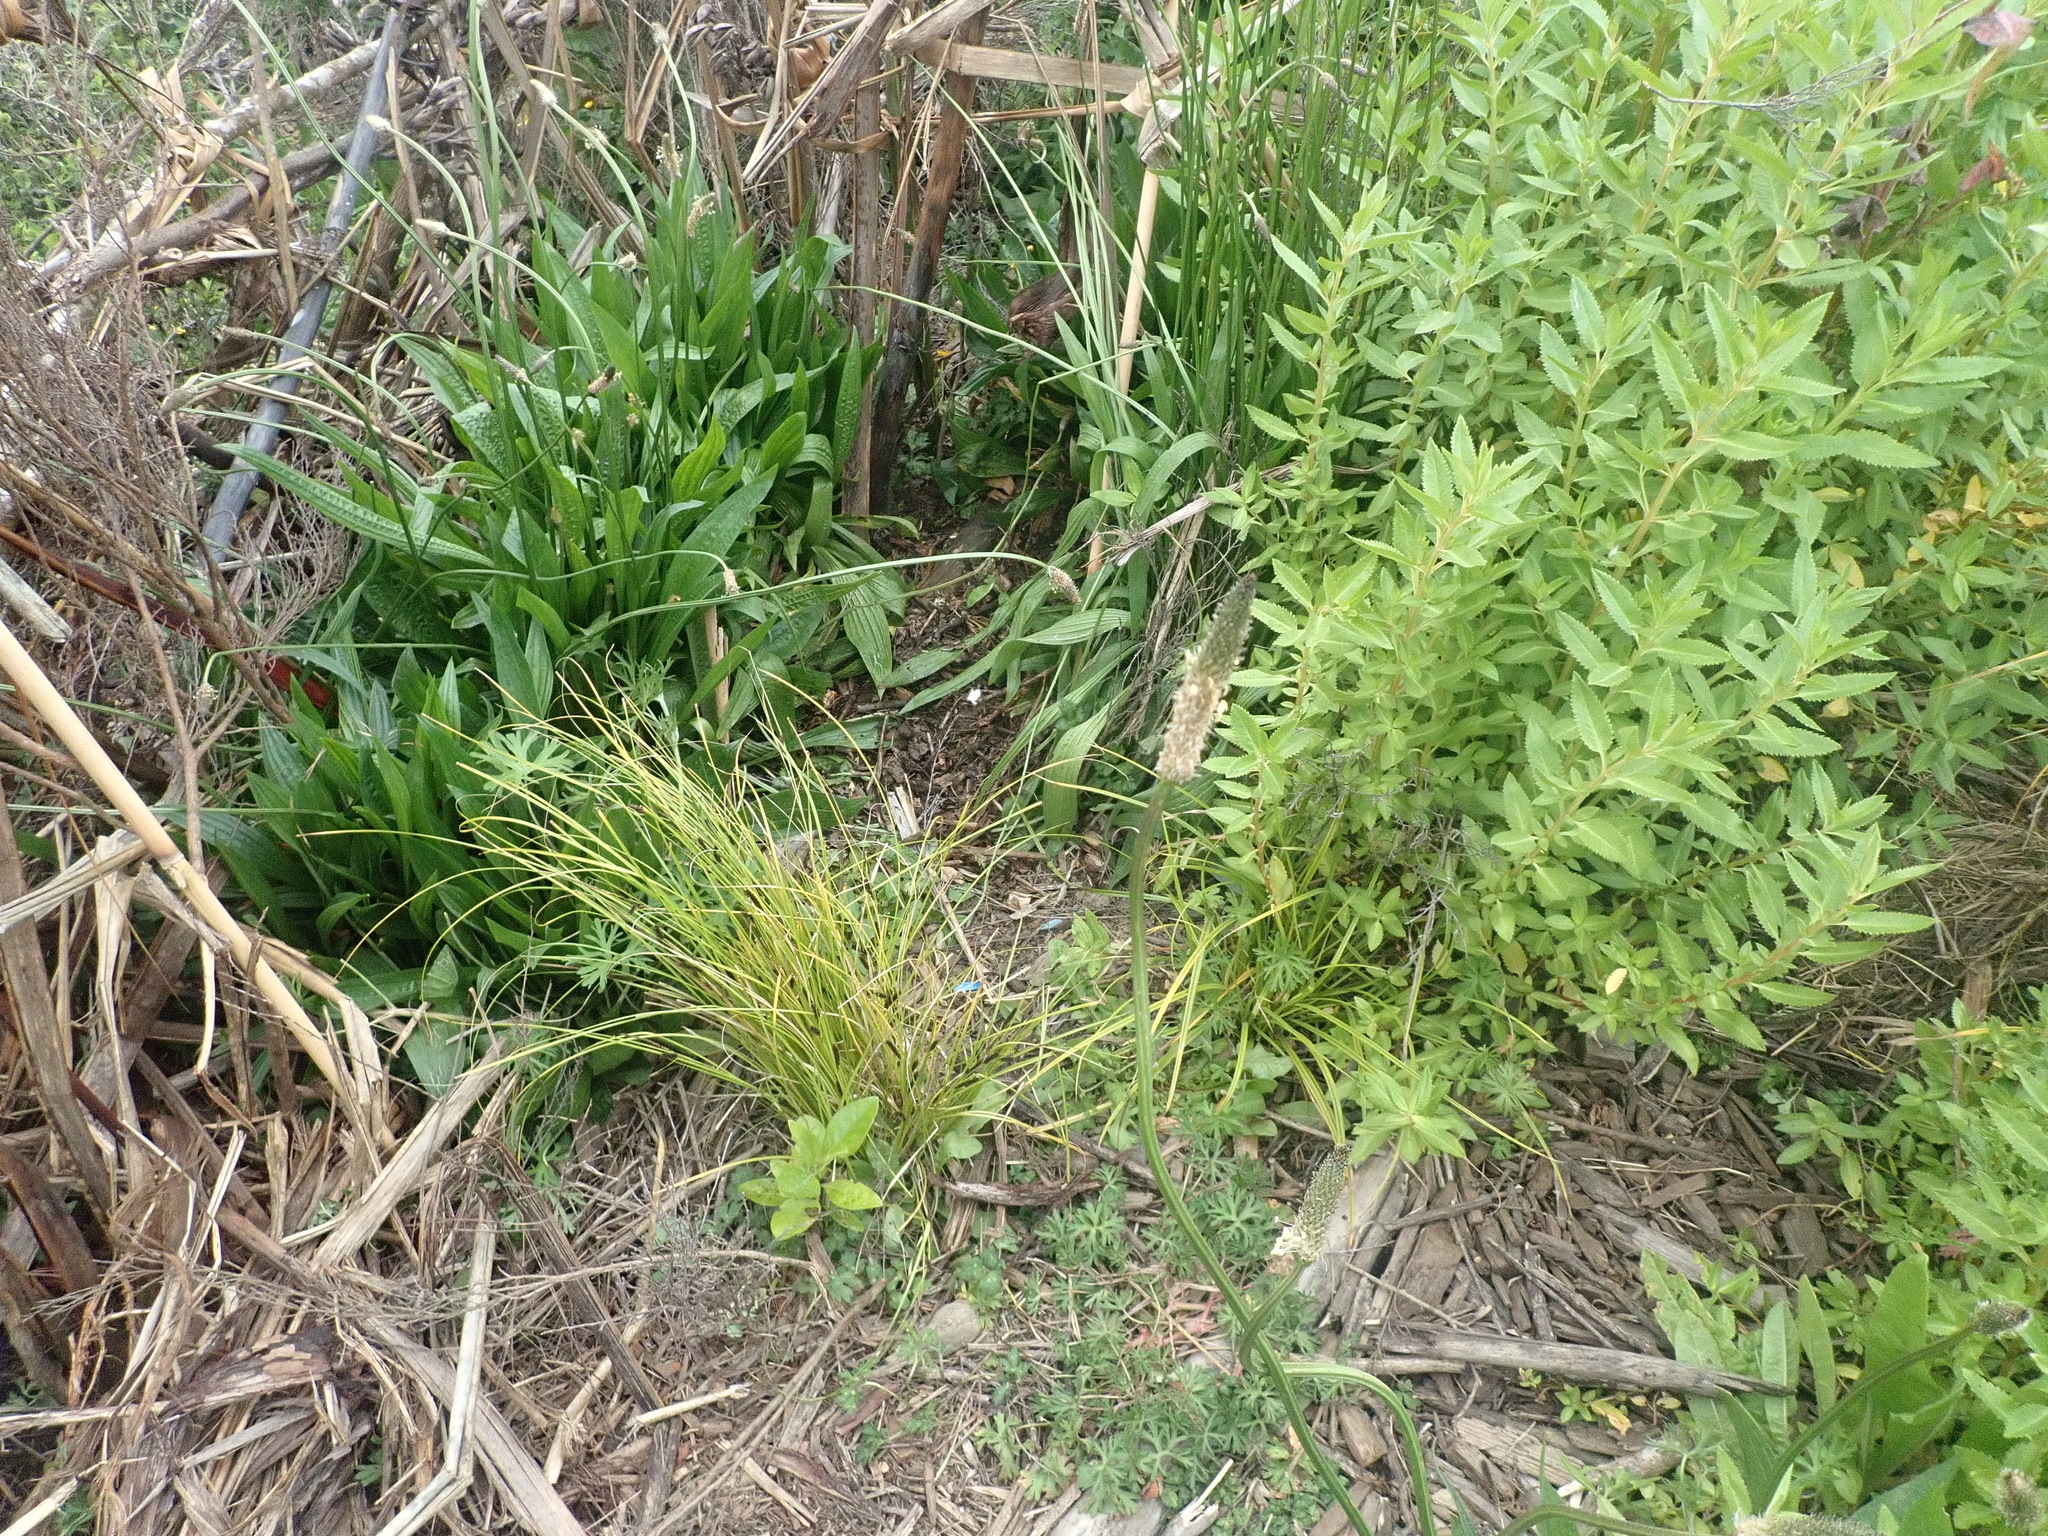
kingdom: Plantae
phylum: Tracheophyta
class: Magnoliopsida
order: Lamiales
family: Plantaginaceae
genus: Plantago
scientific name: Plantago lanceolata
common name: Ribwort plantain
